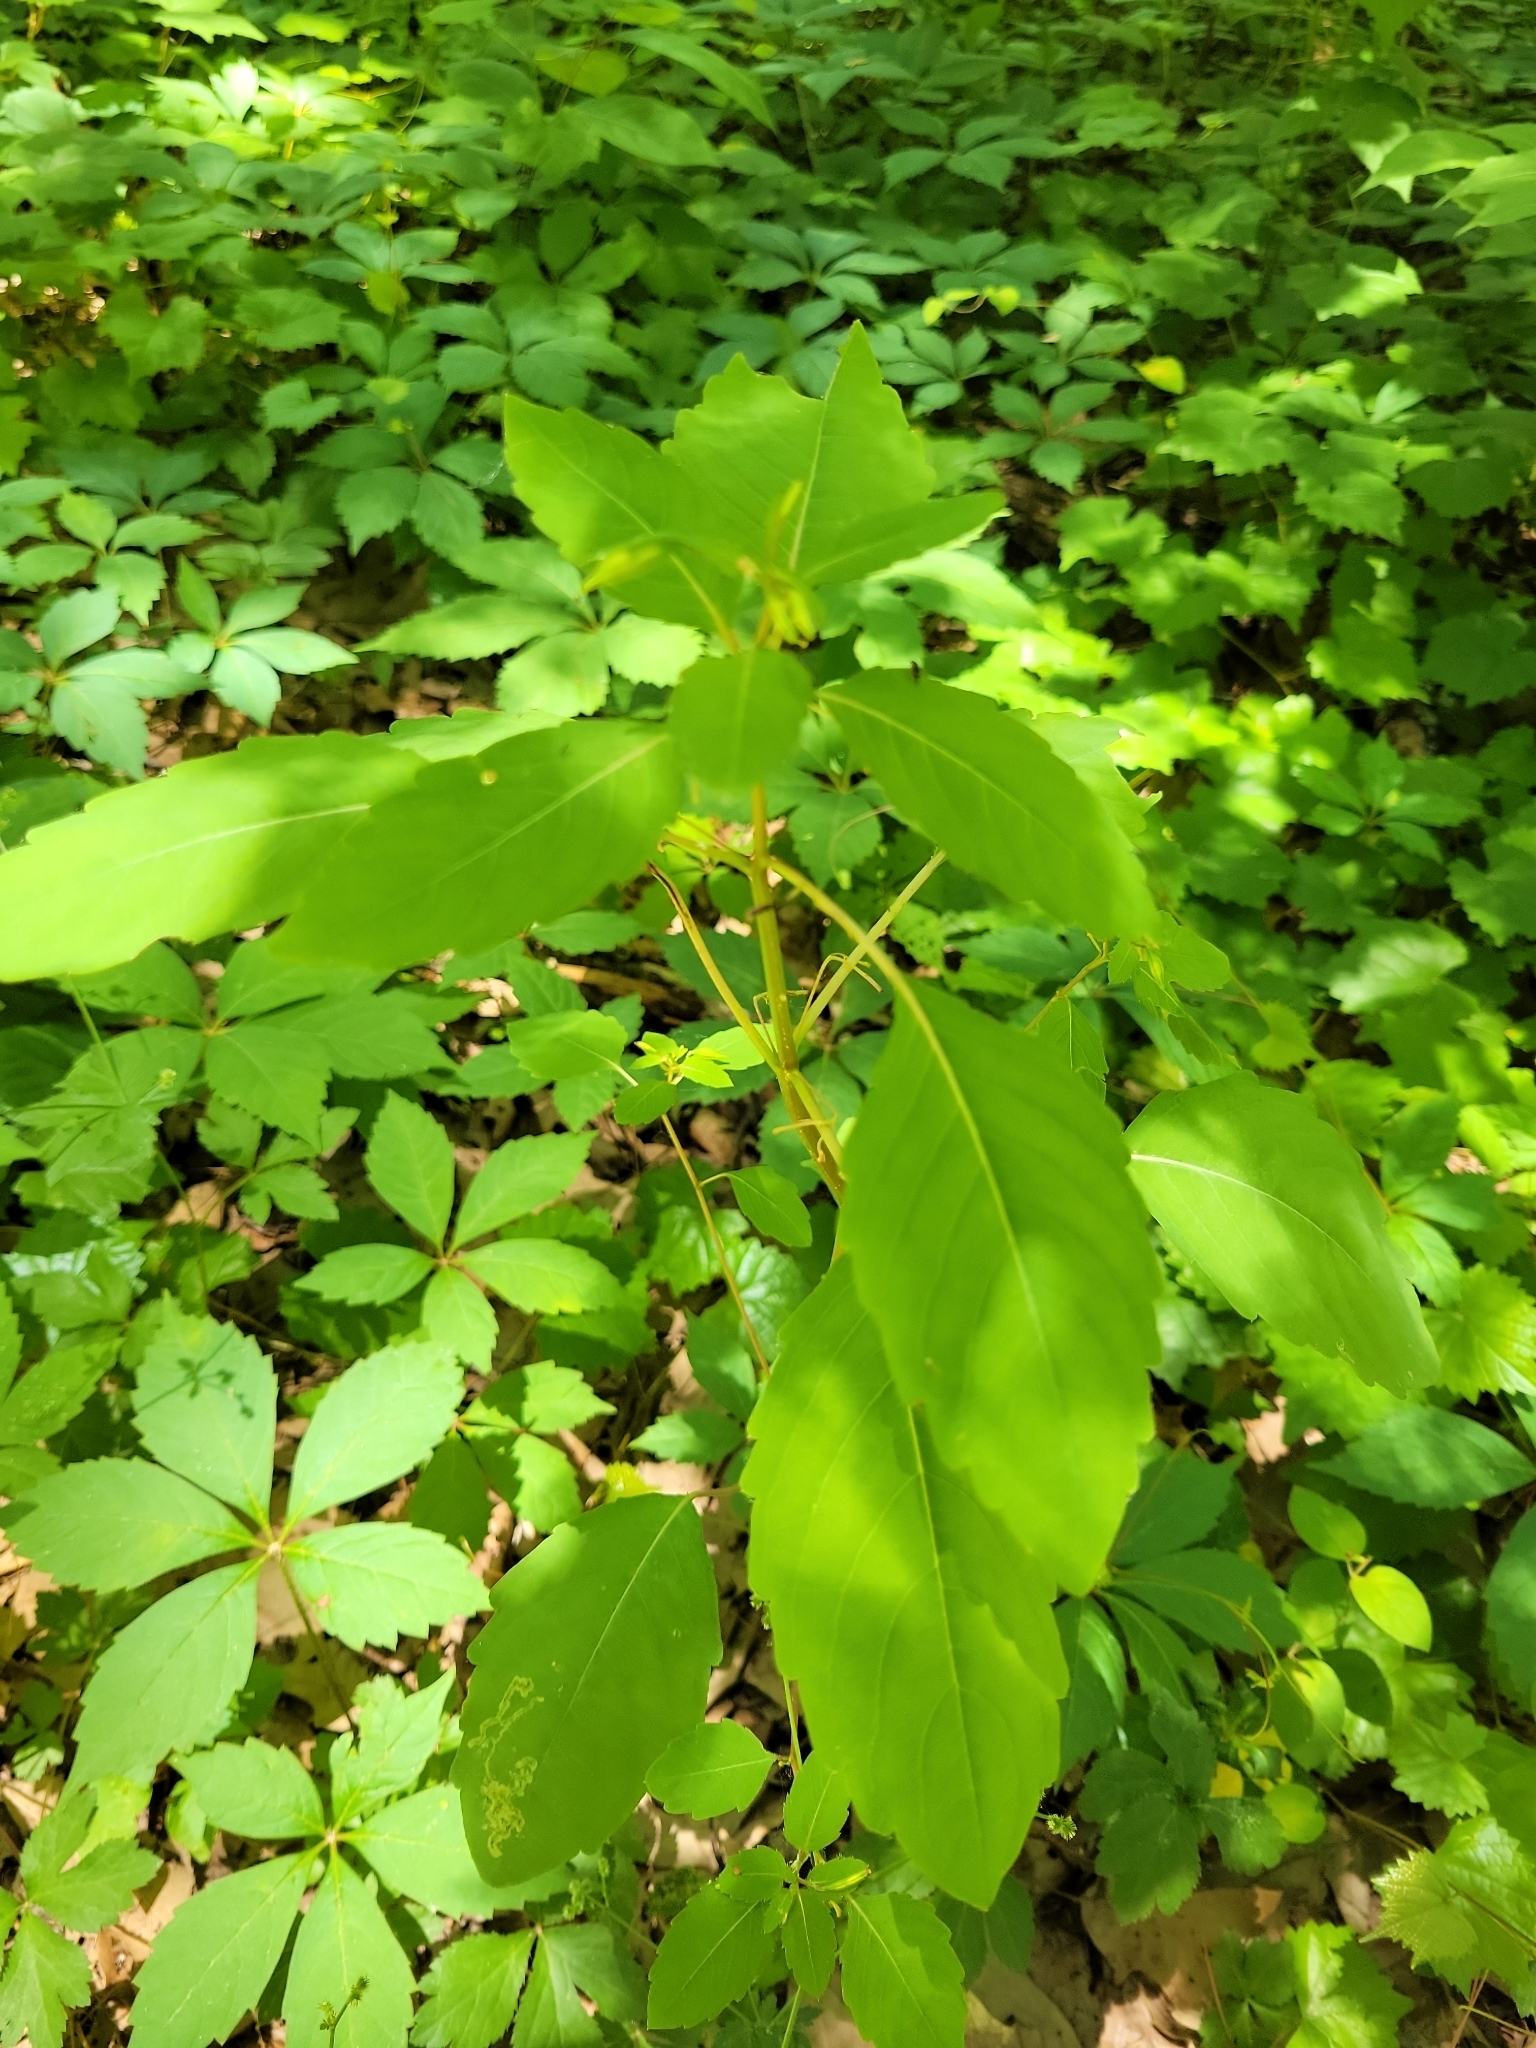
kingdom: Plantae
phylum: Tracheophyta
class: Magnoliopsida
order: Ericales
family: Balsaminaceae
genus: Impatiens
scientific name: Impatiens capensis
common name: Orange balsam
